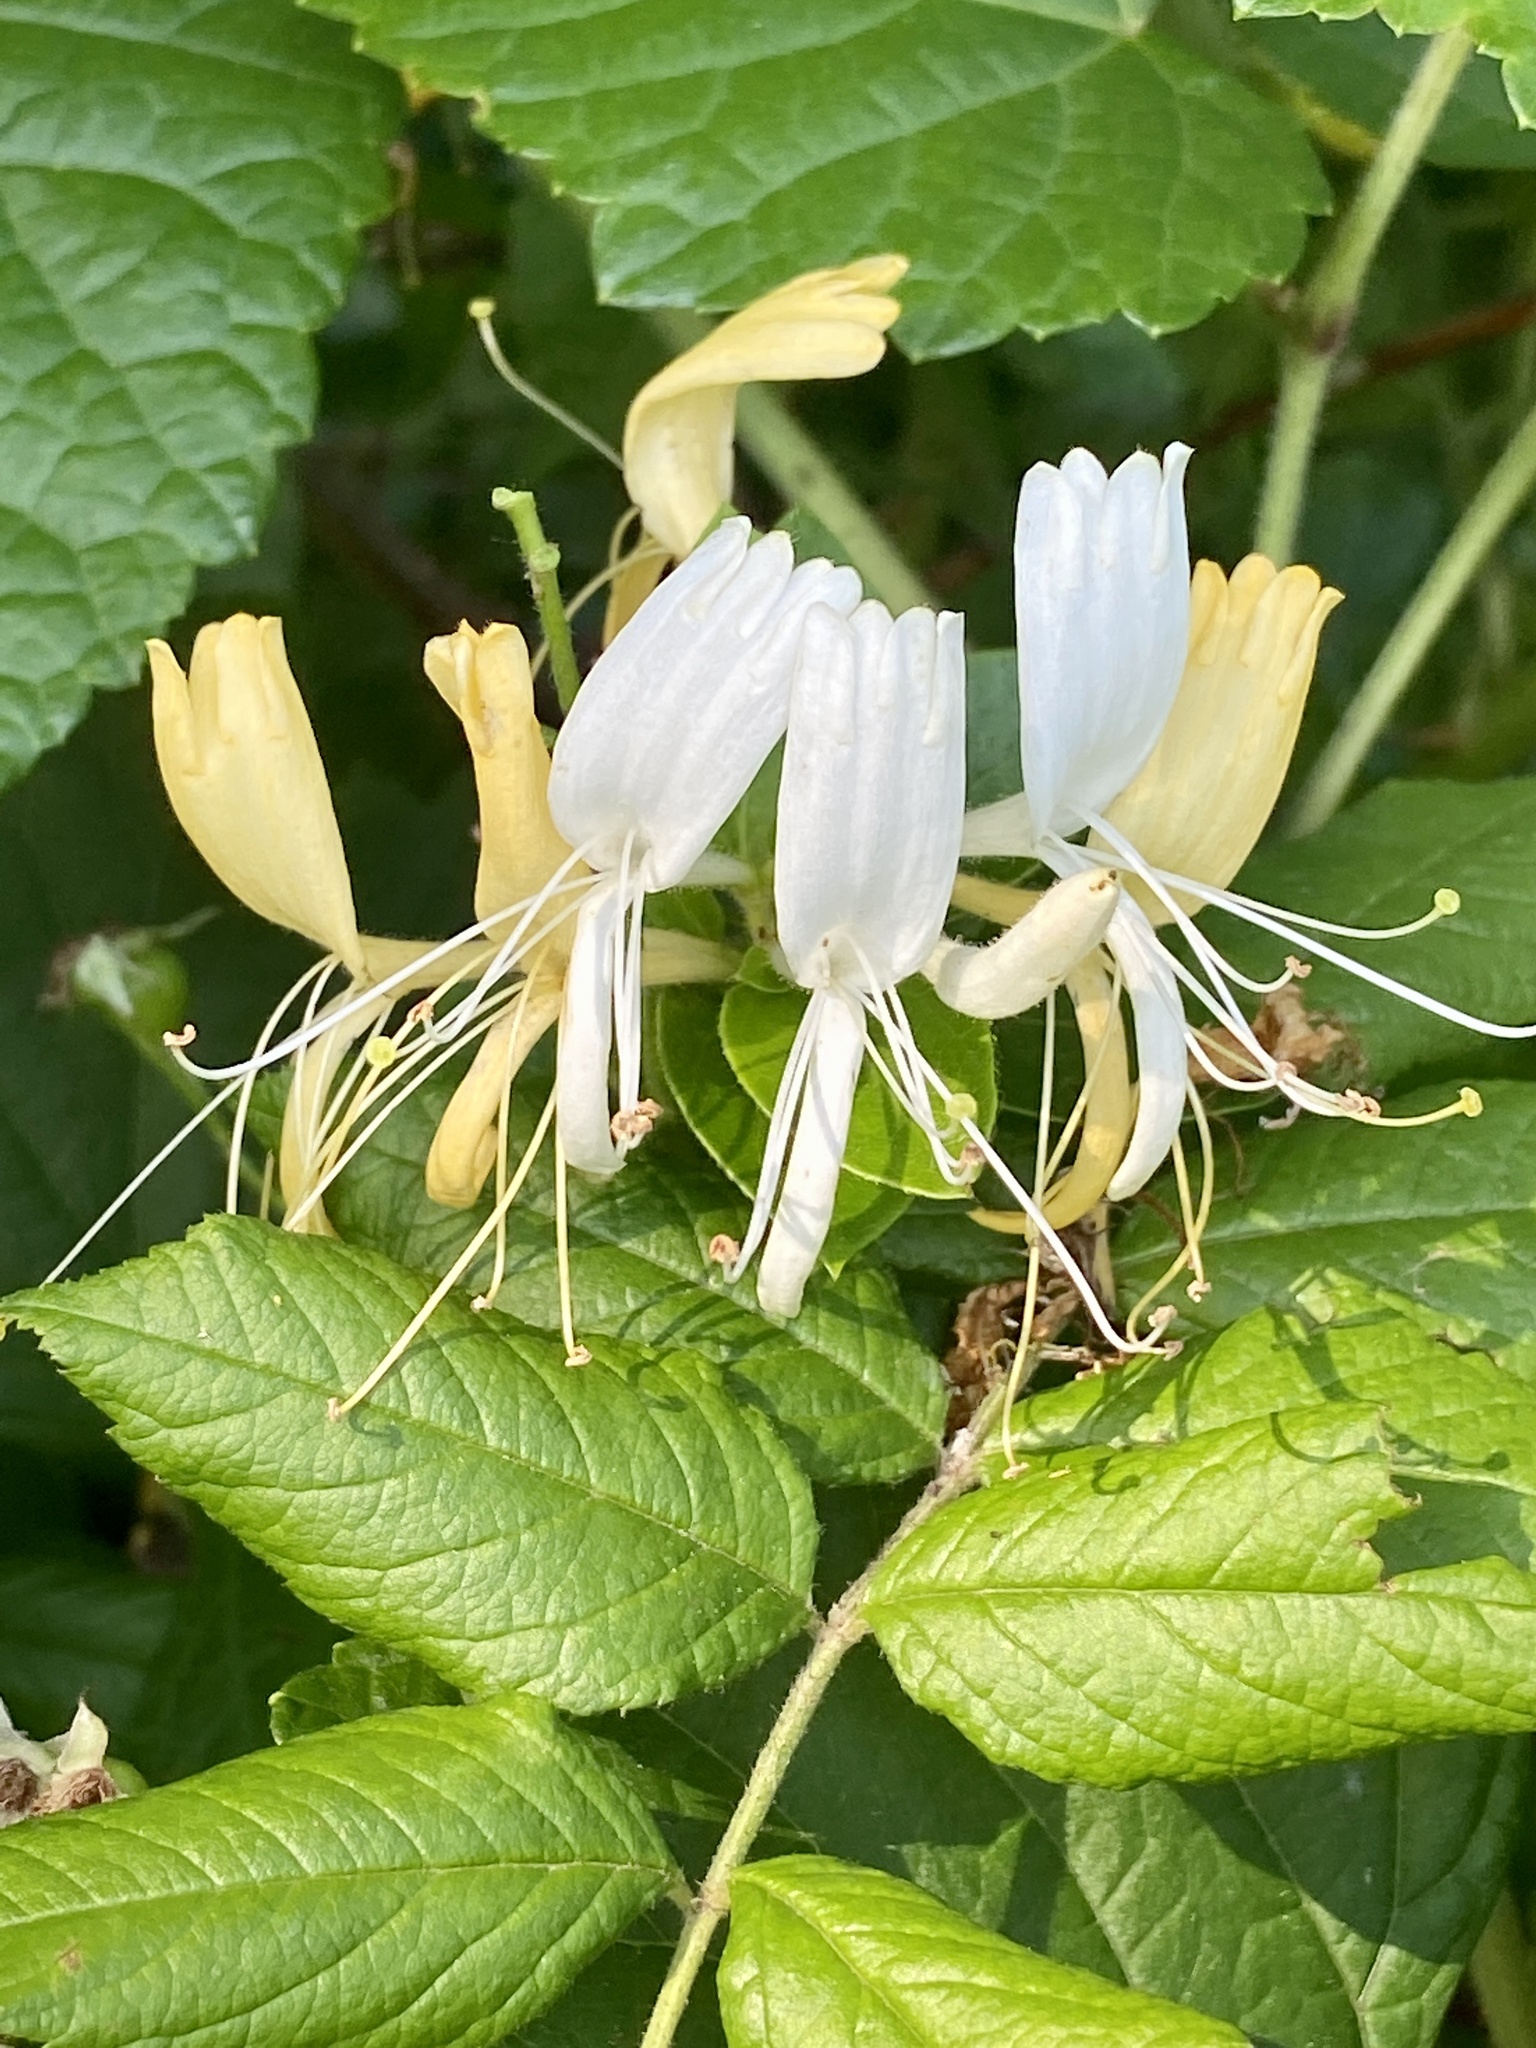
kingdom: Plantae
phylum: Tracheophyta
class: Magnoliopsida
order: Dipsacales
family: Caprifoliaceae
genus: Lonicera
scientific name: Lonicera japonica
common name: Japanese honeysuckle
